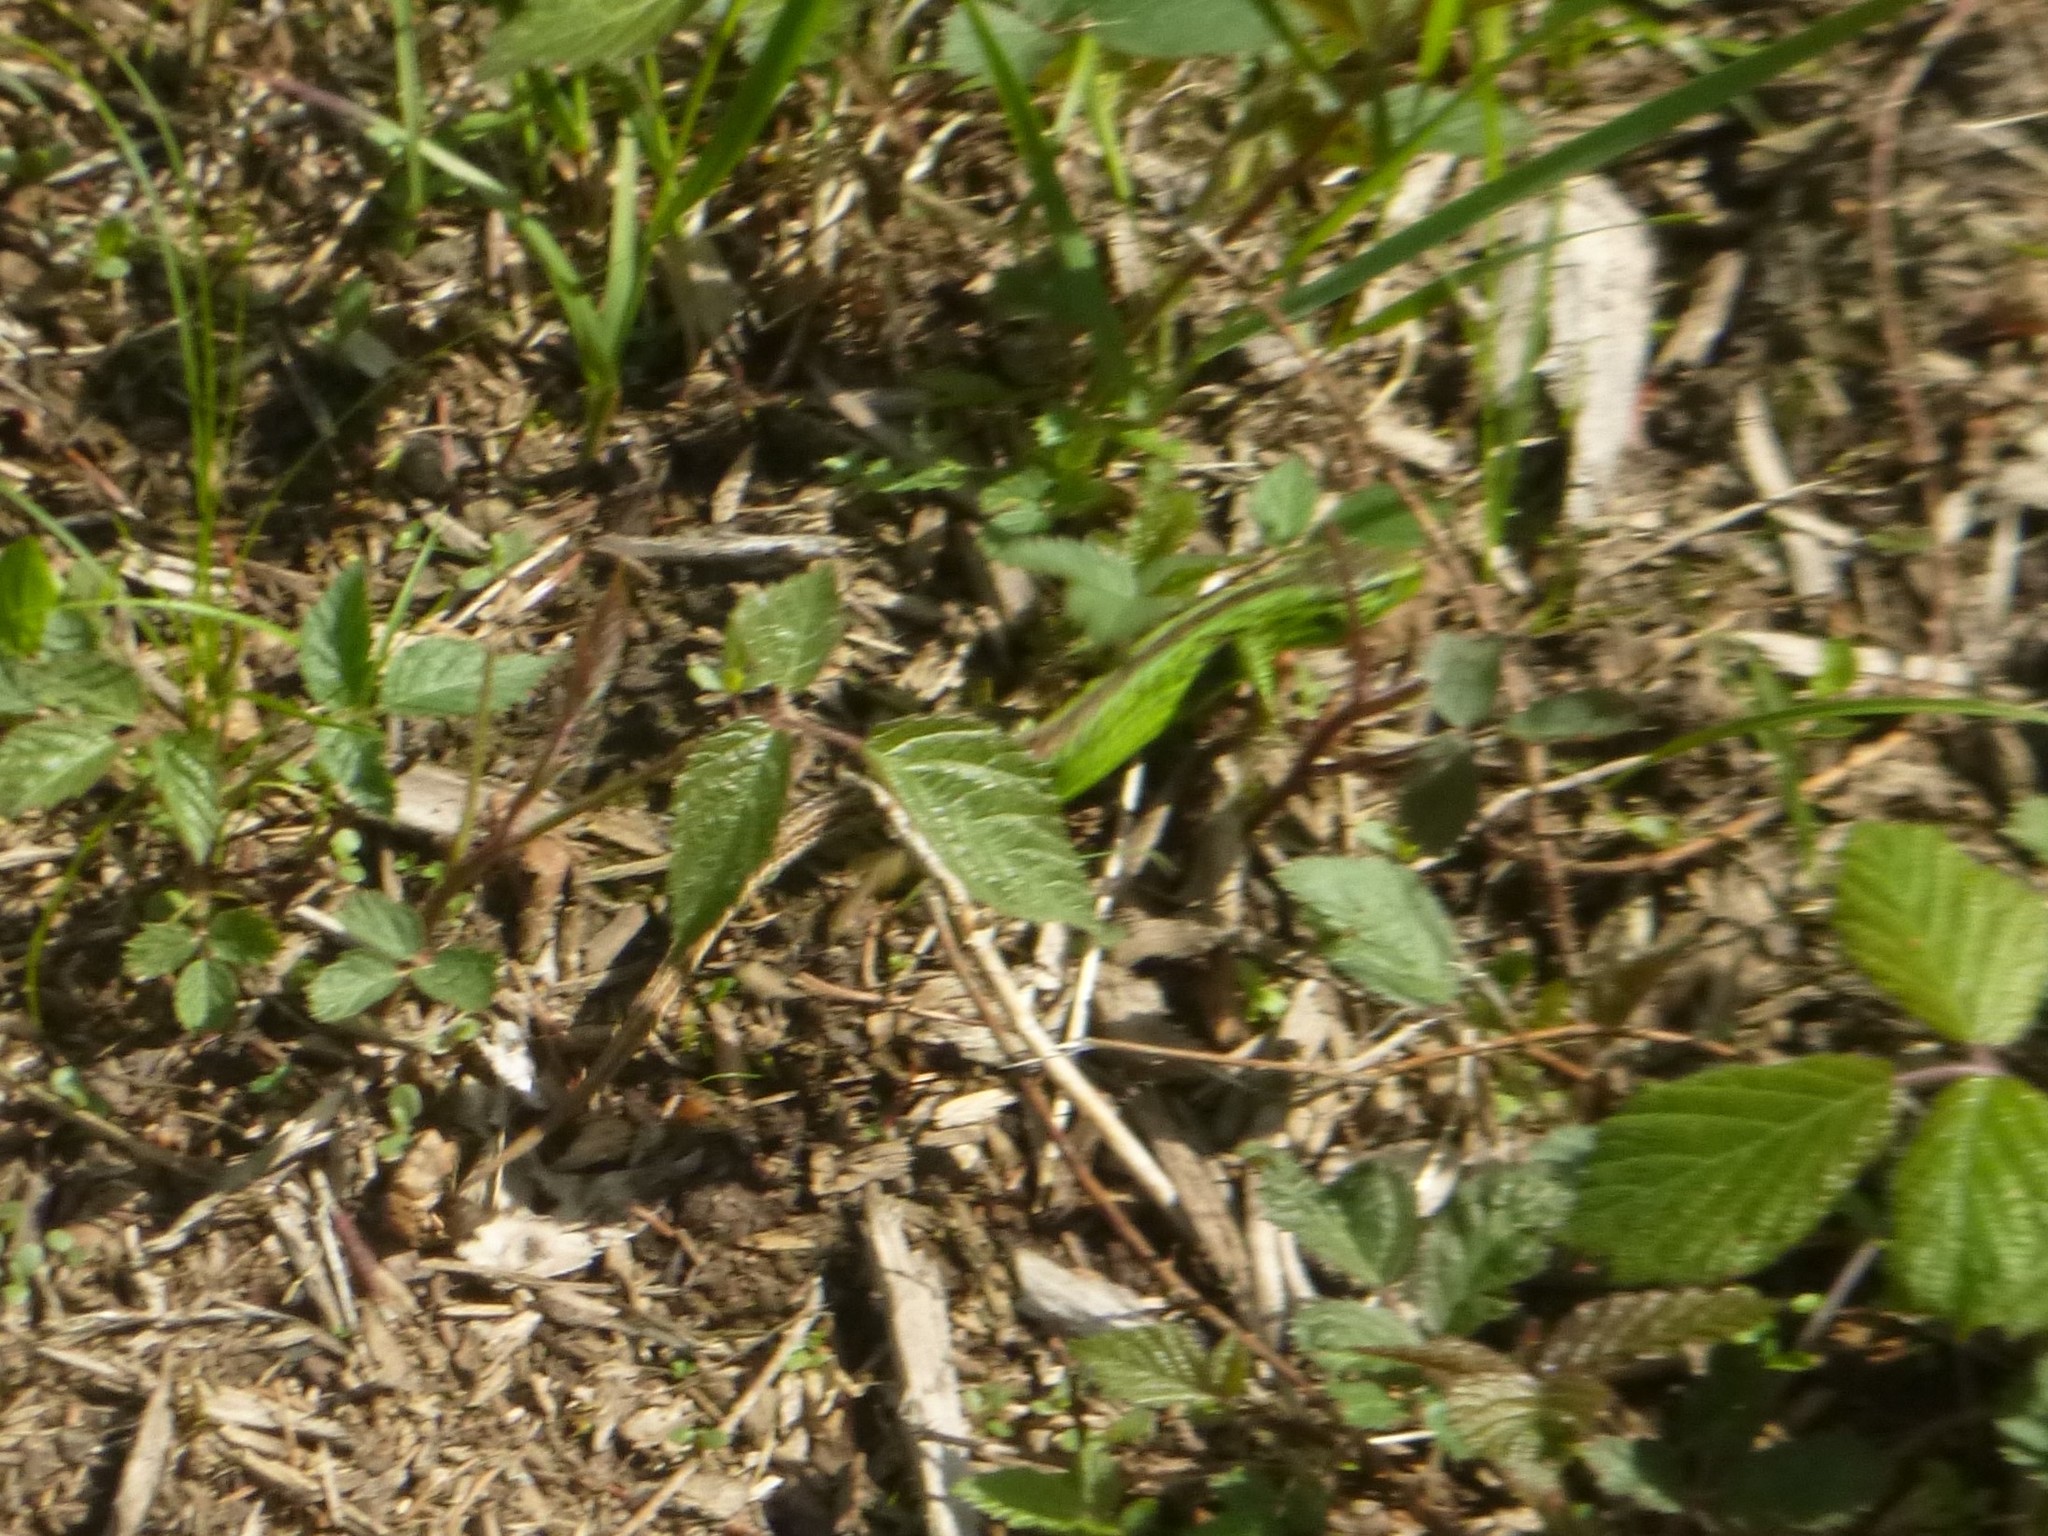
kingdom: Animalia
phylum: Chordata
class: Squamata
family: Lacertidae
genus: Lacerta
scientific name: Lacerta agilis
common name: Sand lizard
